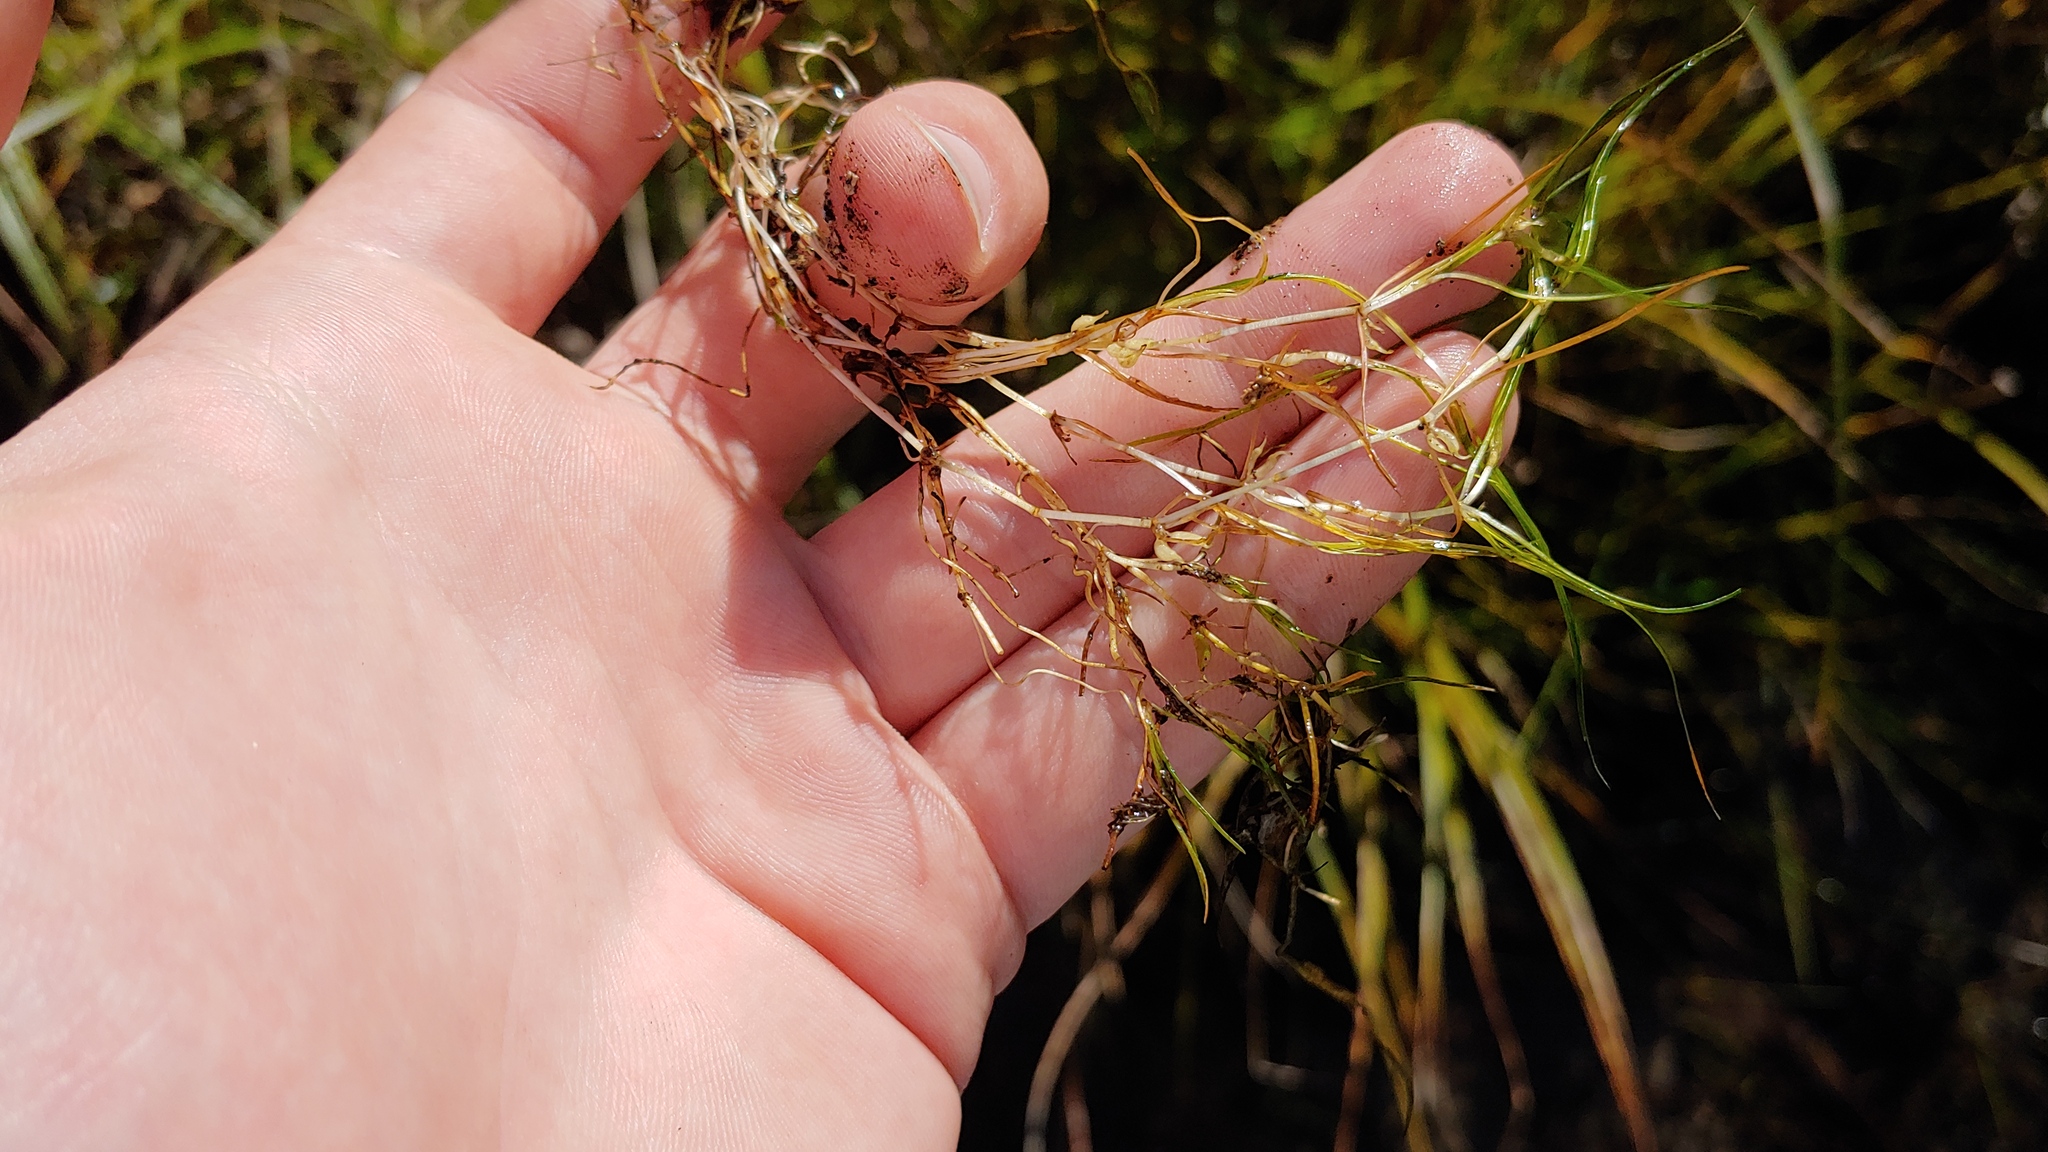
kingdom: Plantae
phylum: Tracheophyta
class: Liliopsida
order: Alismatales
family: Potamogetonaceae
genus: Zannichellia
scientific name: Zannichellia palustris
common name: Horned pondweed
